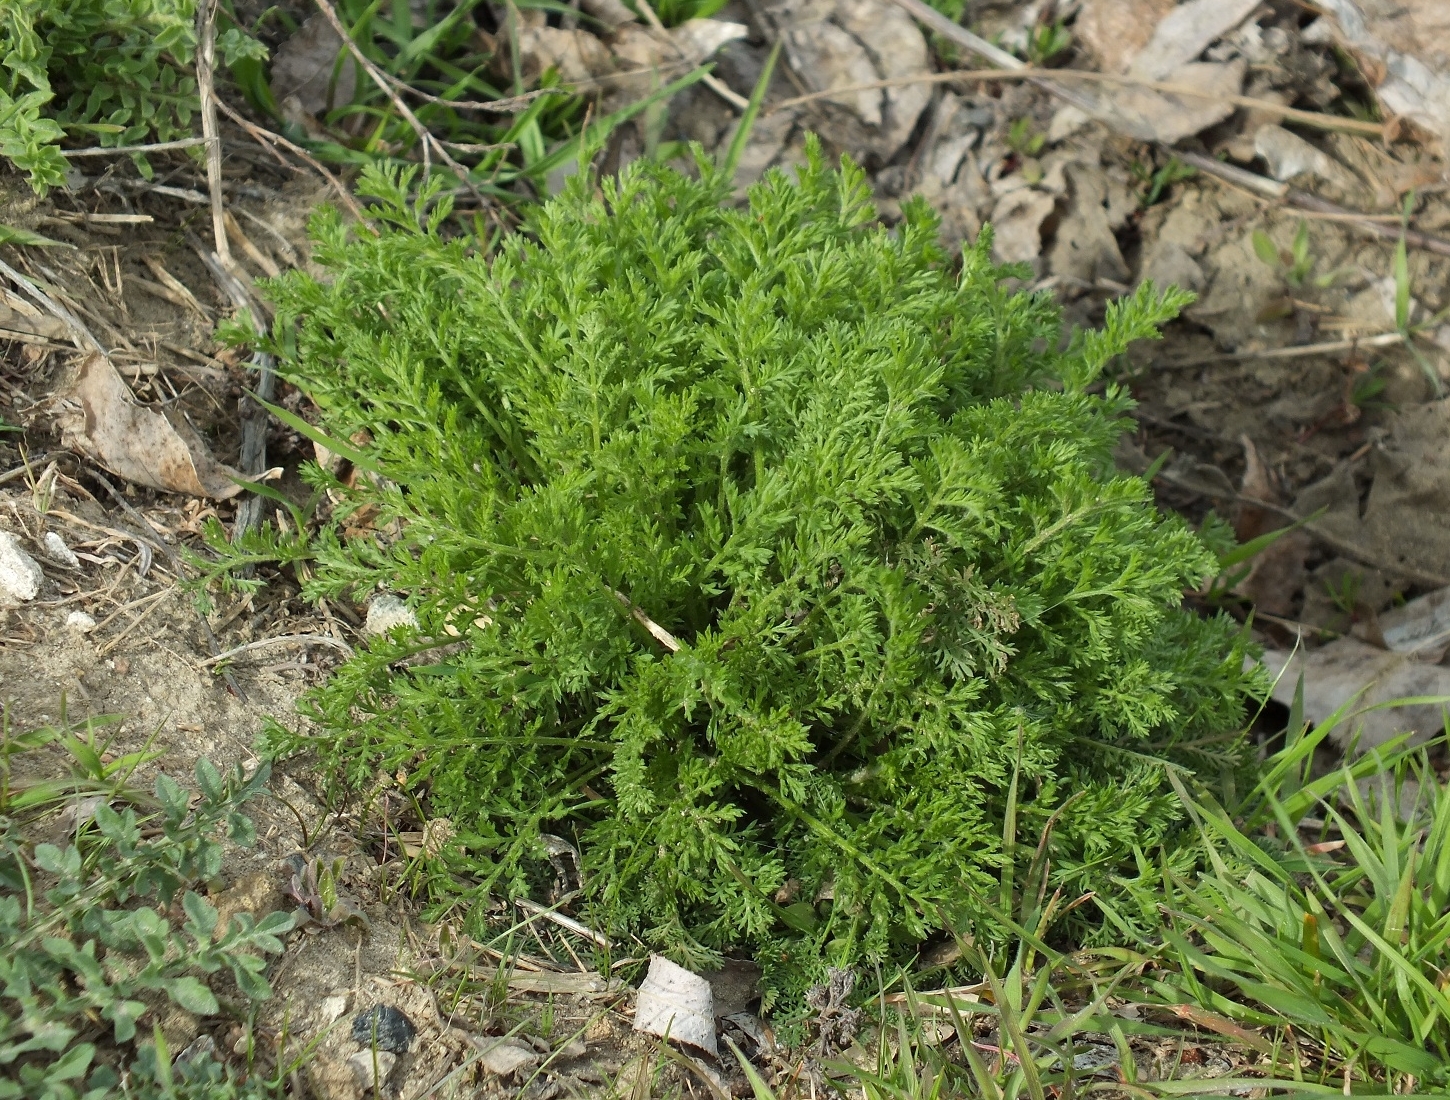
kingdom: Plantae
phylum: Tracheophyta
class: Magnoliopsida
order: Asterales
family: Asteraceae
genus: Achillea
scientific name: Achillea nobilis
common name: Noble yarrow
